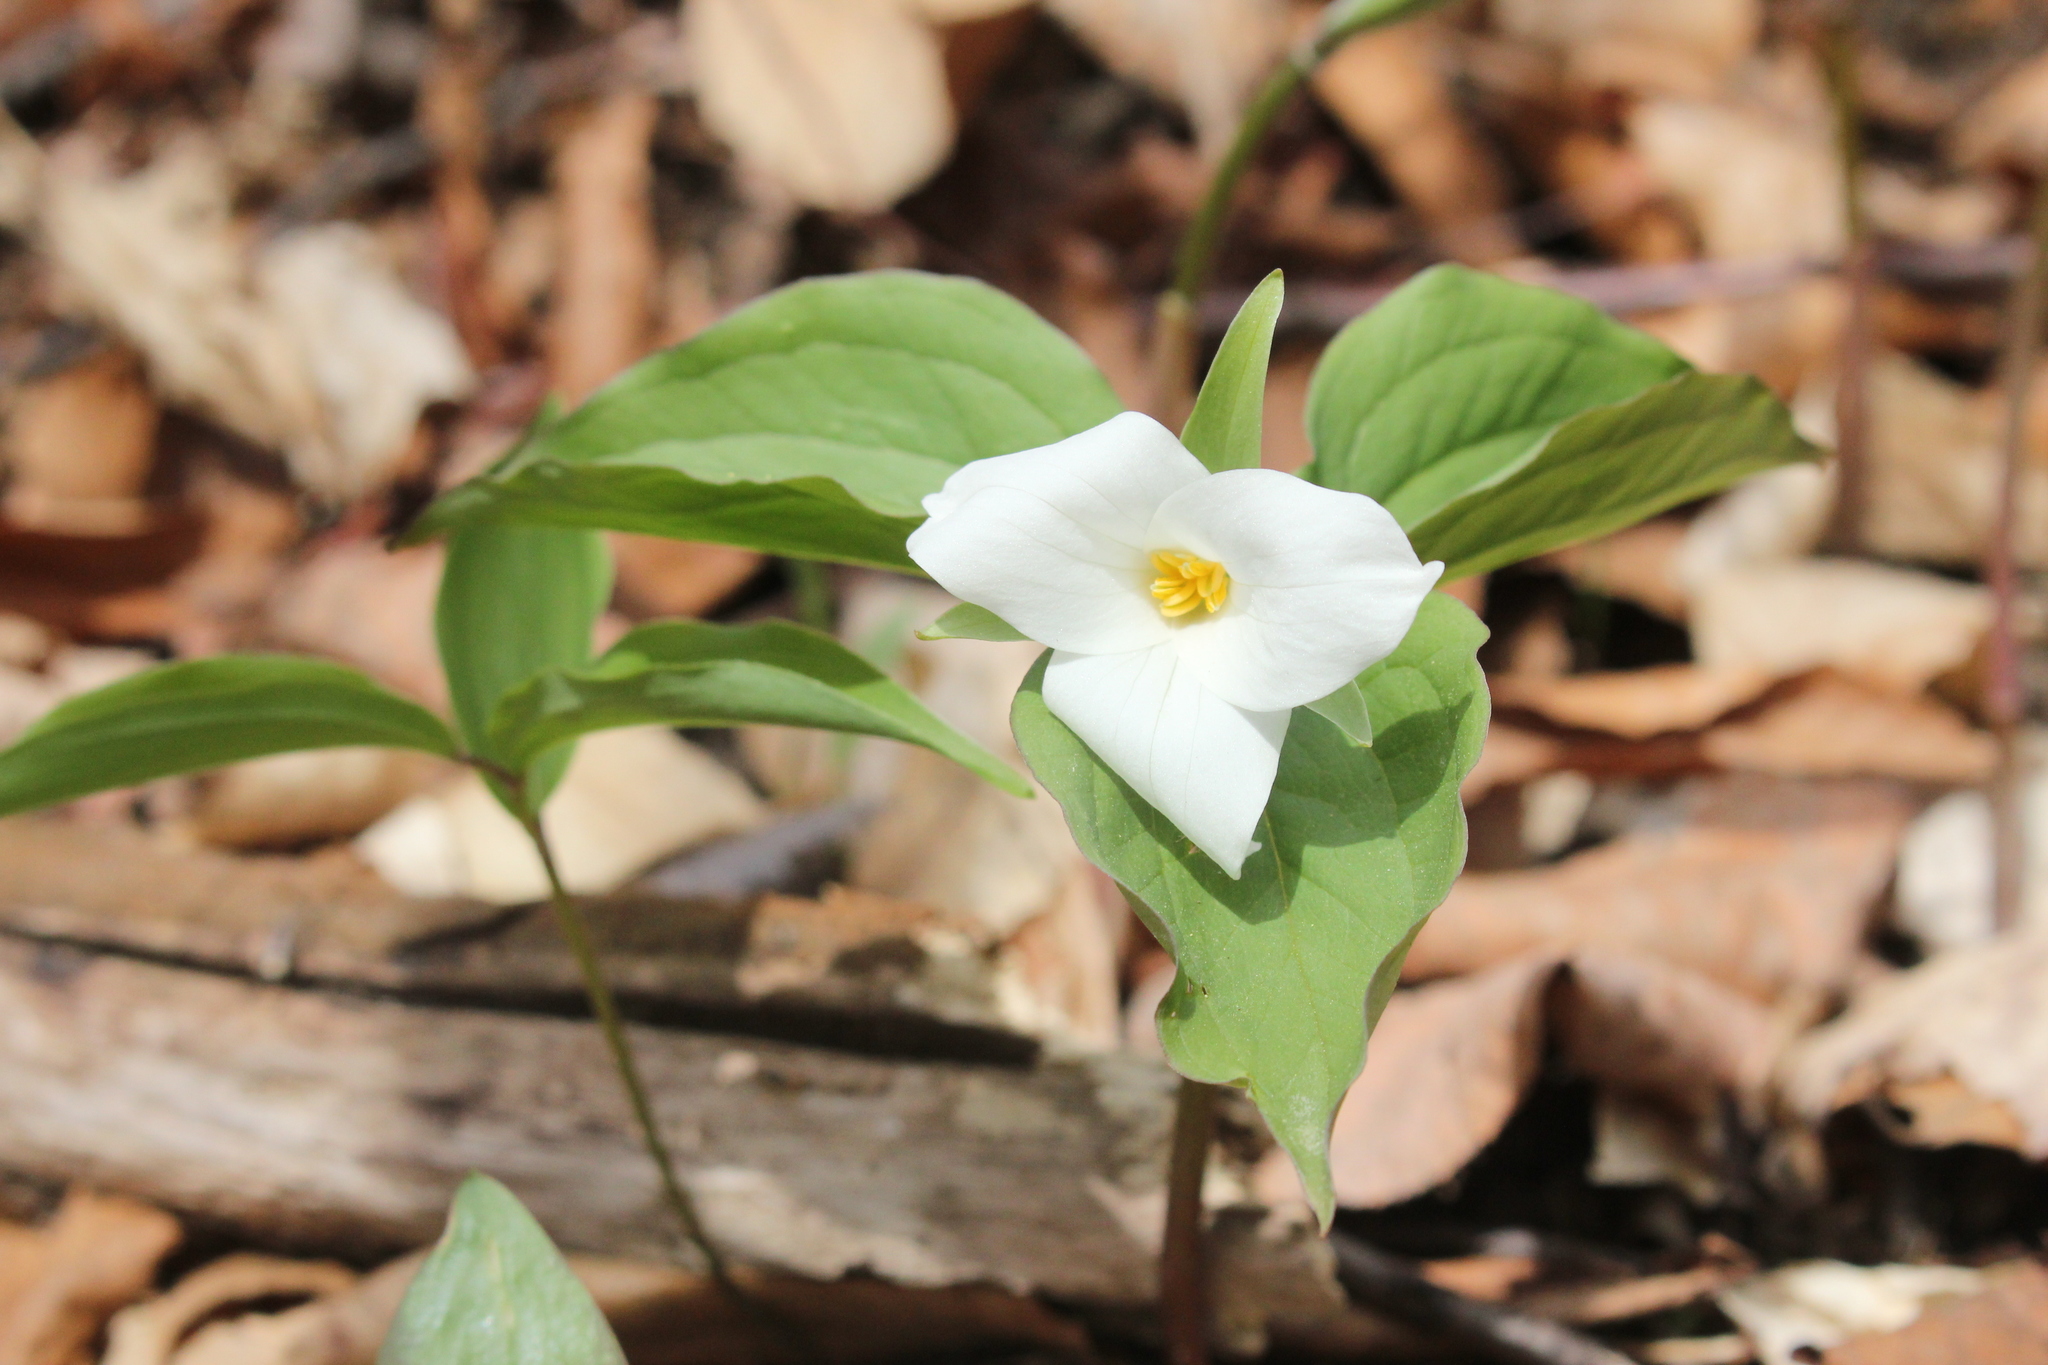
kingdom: Plantae
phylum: Tracheophyta
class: Liliopsida
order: Liliales
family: Melanthiaceae
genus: Trillium
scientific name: Trillium grandiflorum
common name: Great white trillium
